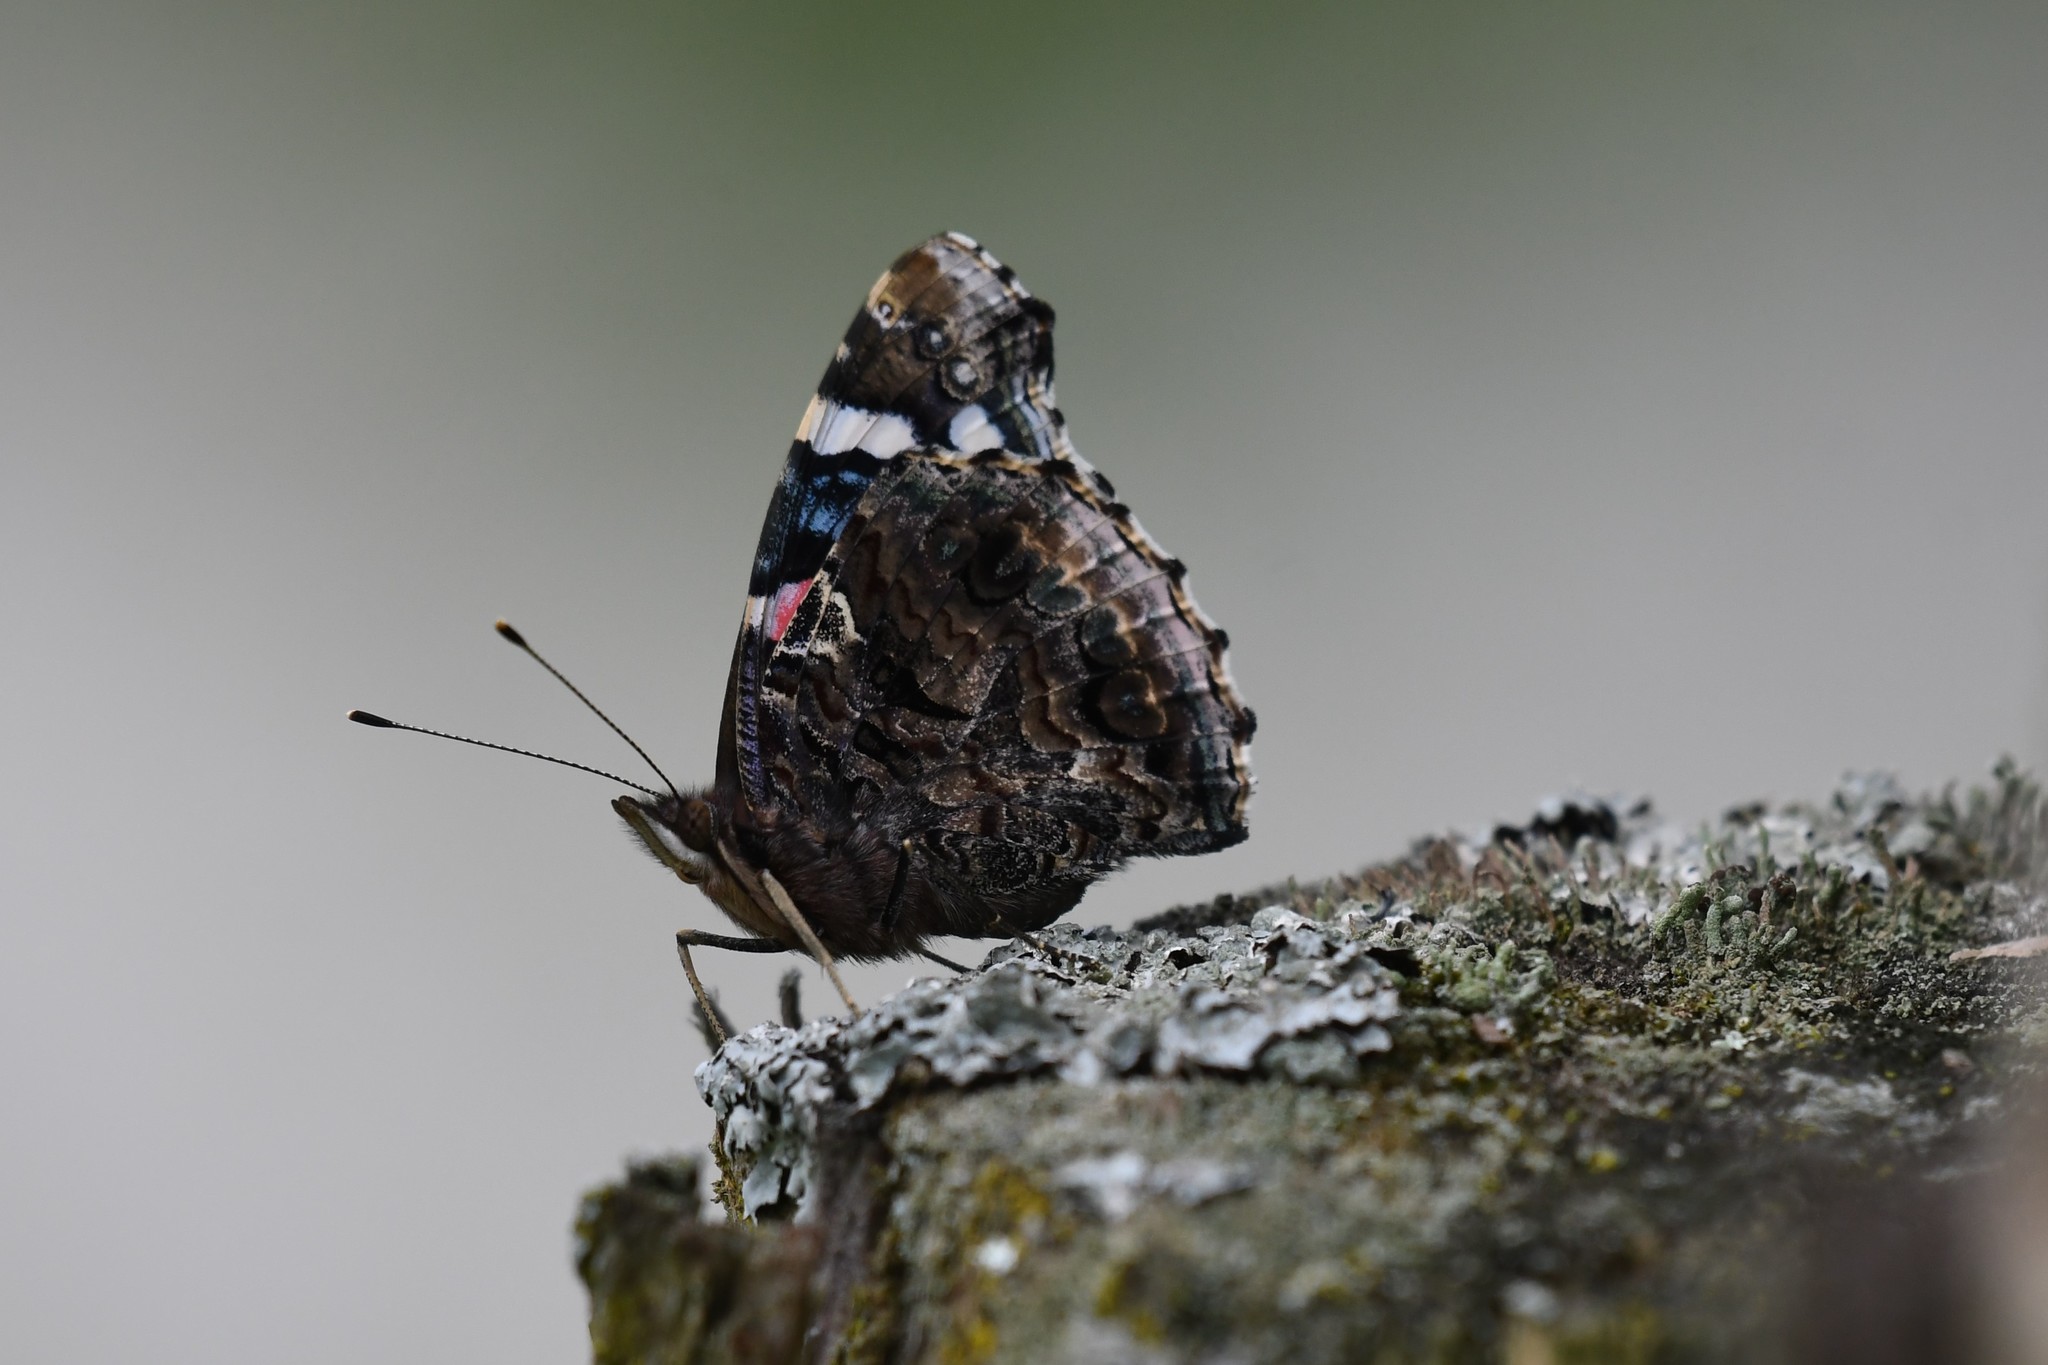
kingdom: Animalia
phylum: Arthropoda
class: Insecta
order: Lepidoptera
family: Nymphalidae
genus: Vanessa
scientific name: Vanessa atalanta
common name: Red admiral
